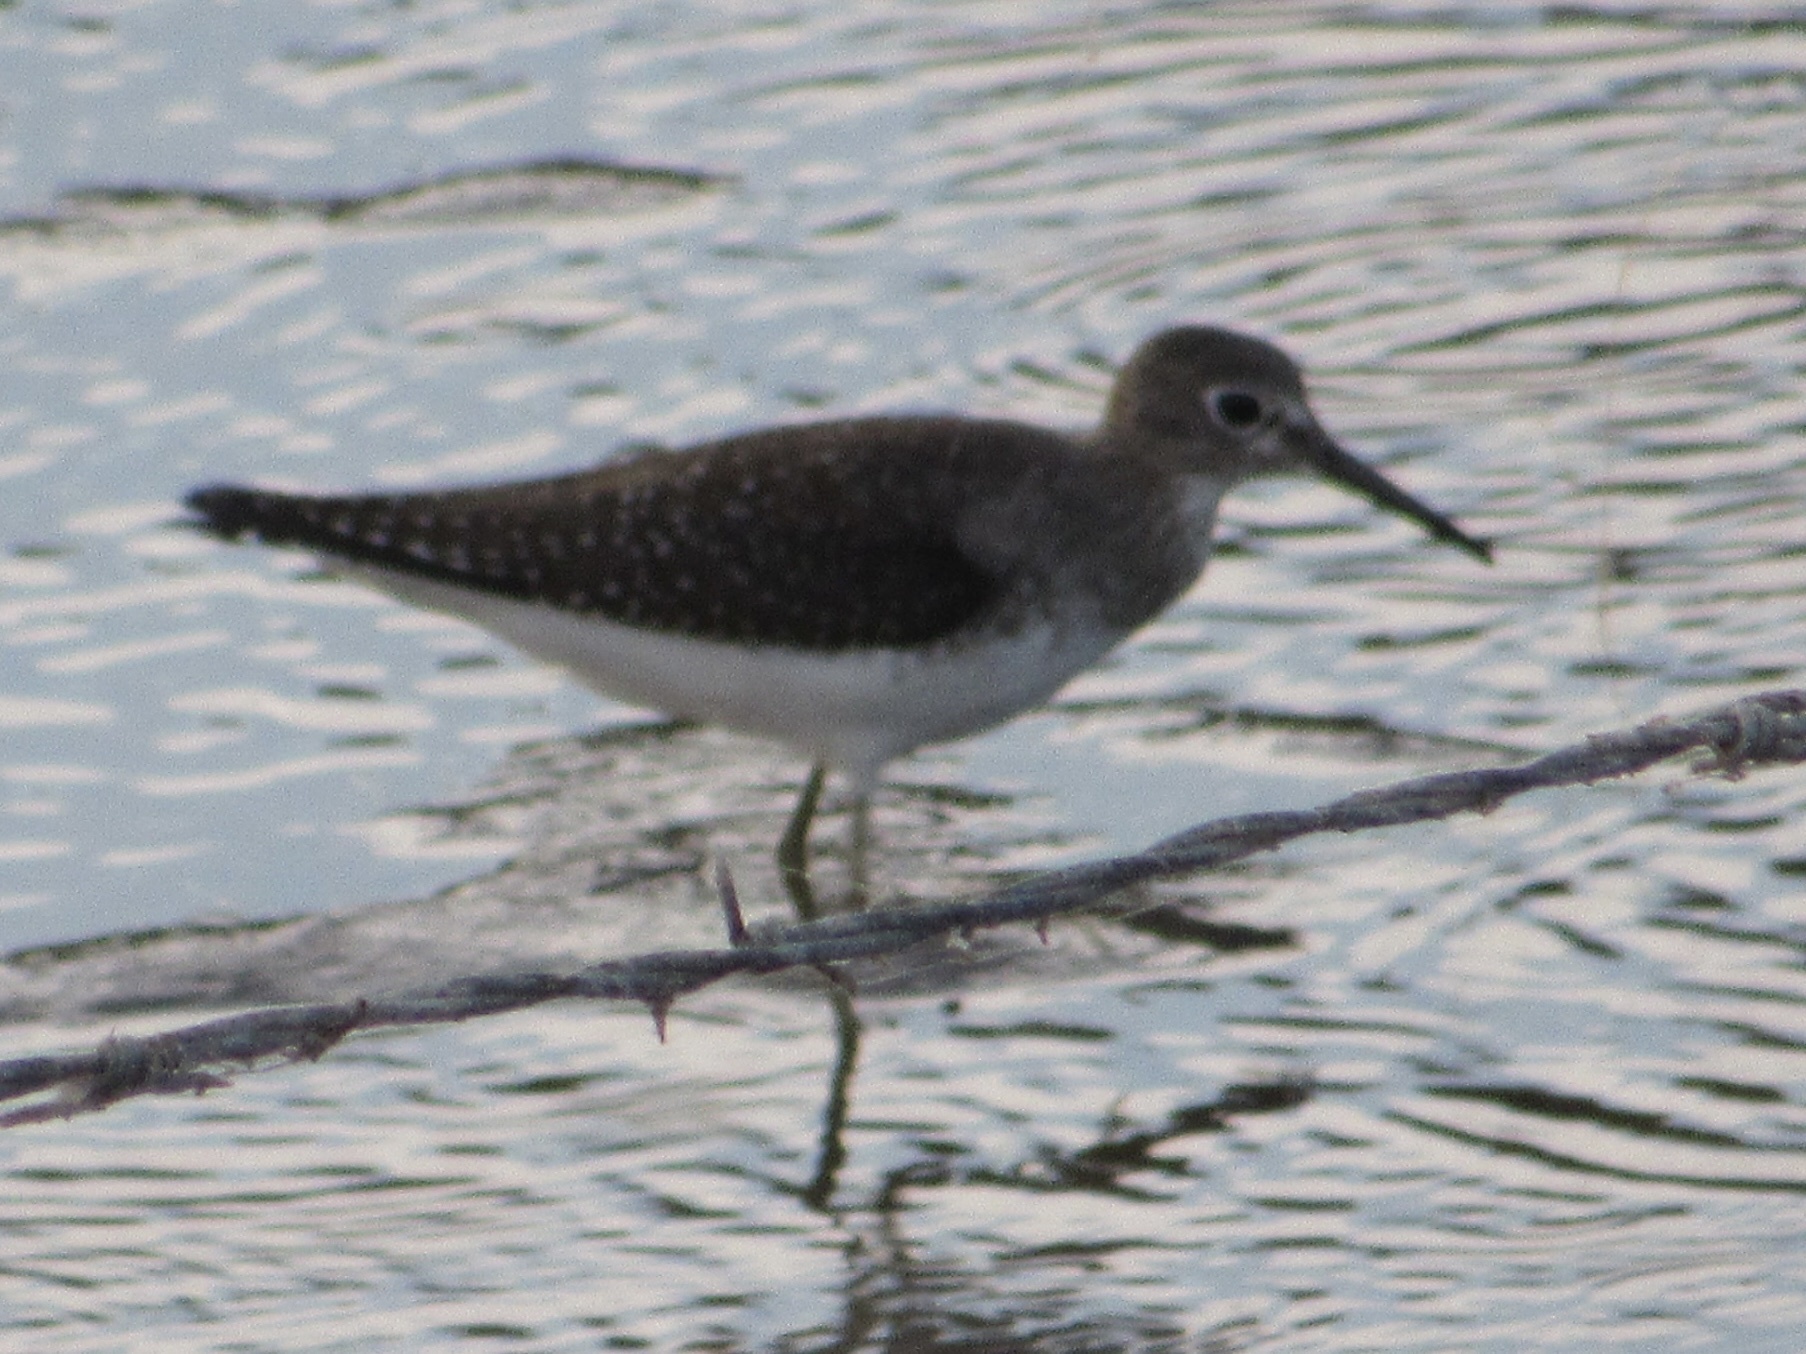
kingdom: Animalia
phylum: Chordata
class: Aves
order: Charadriiformes
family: Scolopacidae
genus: Tringa
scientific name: Tringa solitaria
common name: Solitary sandpiper
